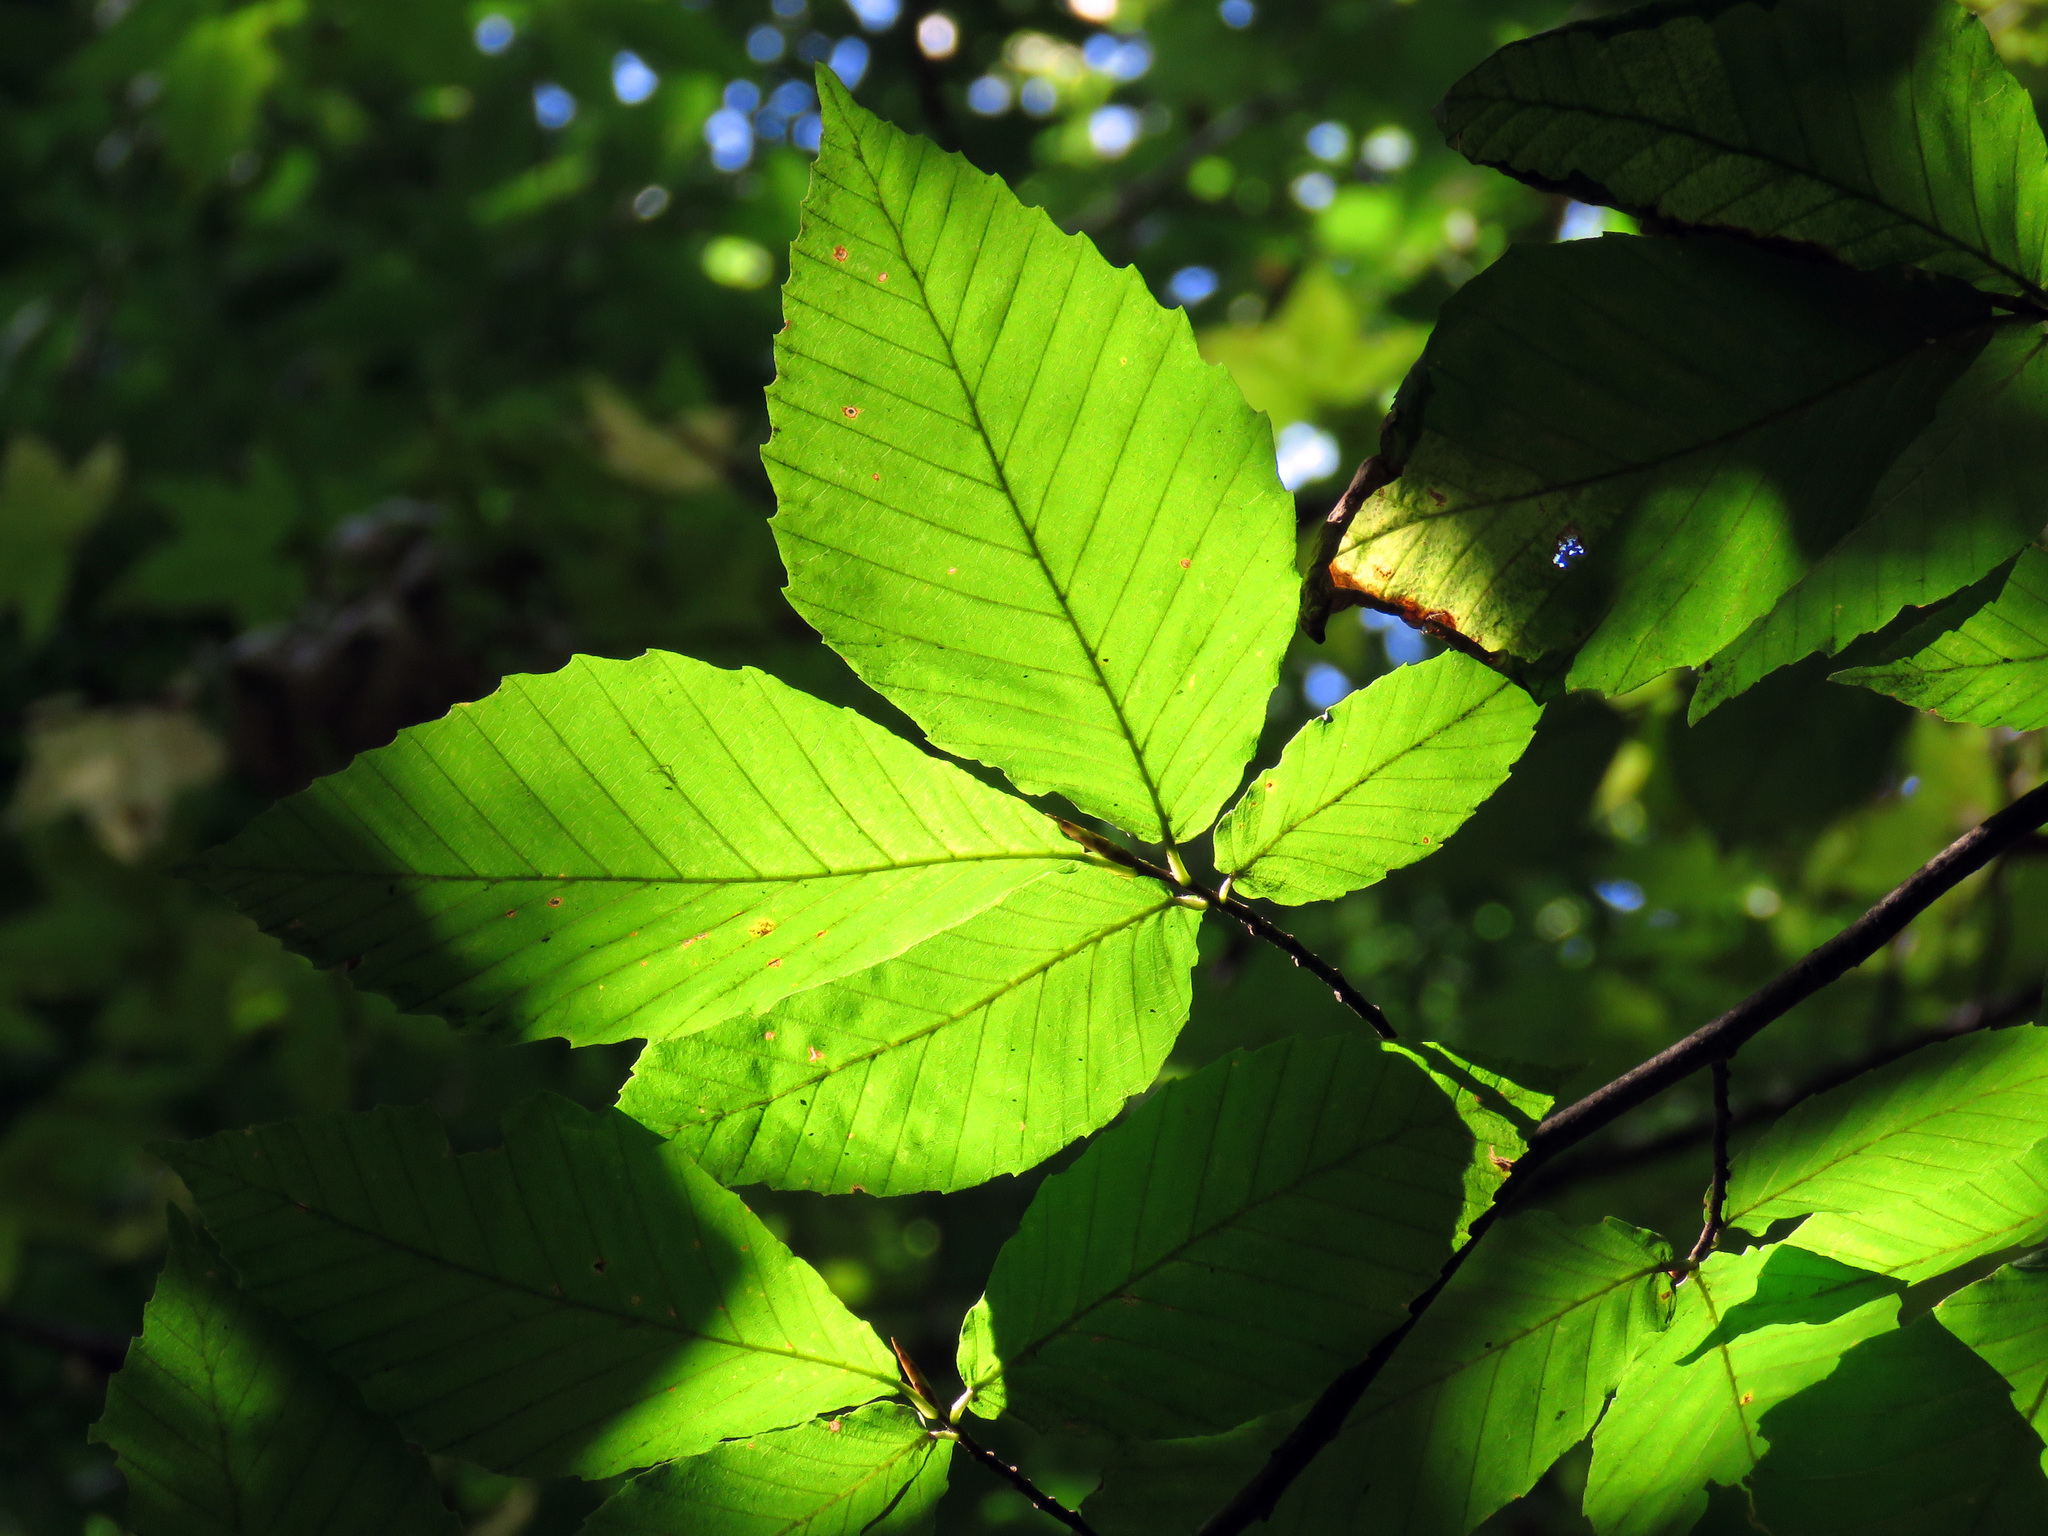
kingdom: Plantae
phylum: Tracheophyta
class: Magnoliopsida
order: Fagales
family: Fagaceae
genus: Fagus
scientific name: Fagus grandifolia
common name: American beech
